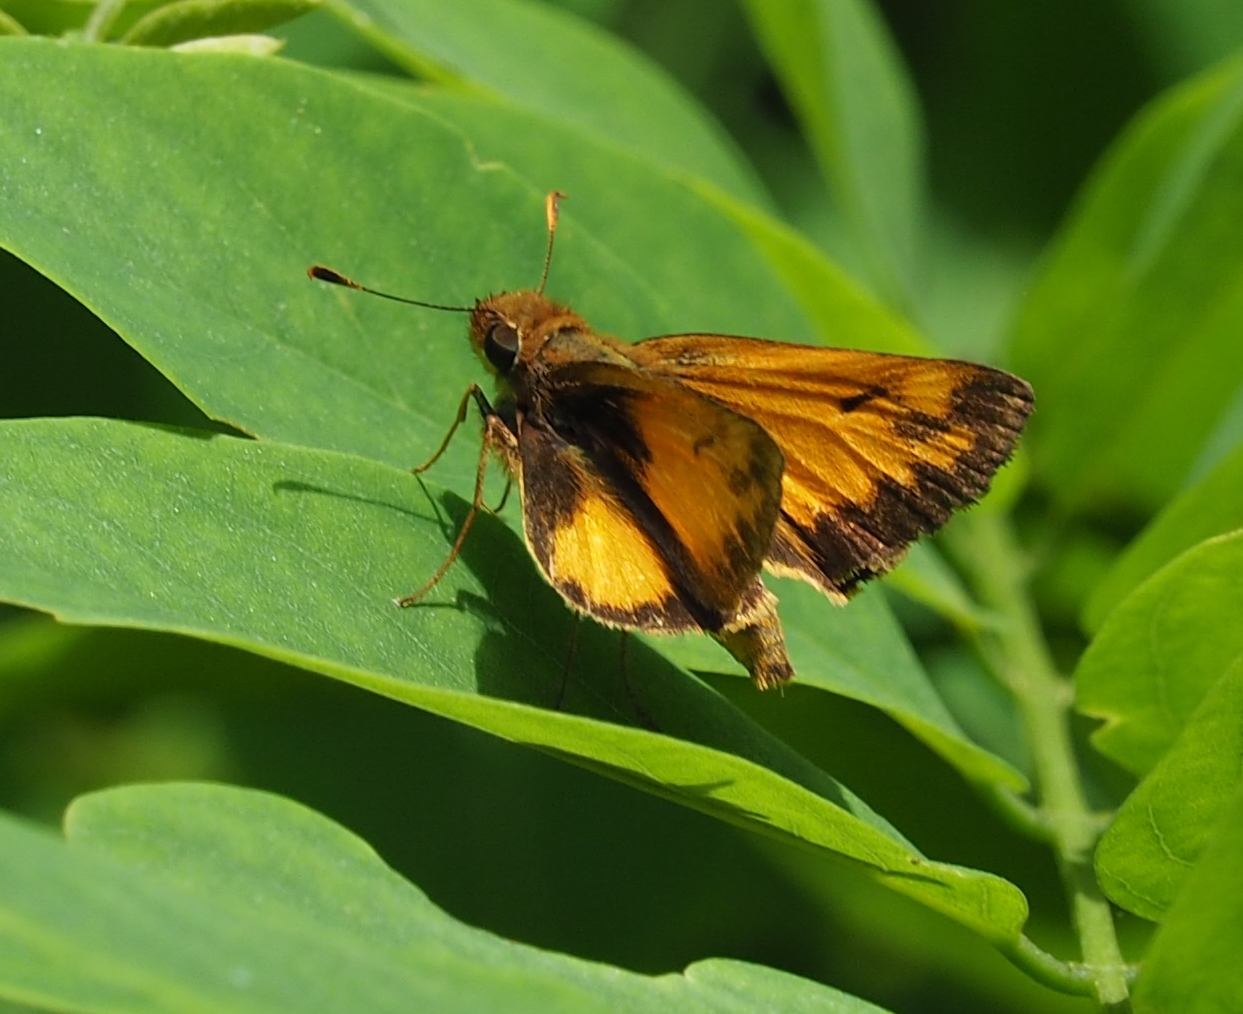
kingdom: Animalia
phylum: Arthropoda
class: Insecta
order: Lepidoptera
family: Hesperiidae
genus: Lon
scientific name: Lon zabulon
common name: Zabulon skipper
